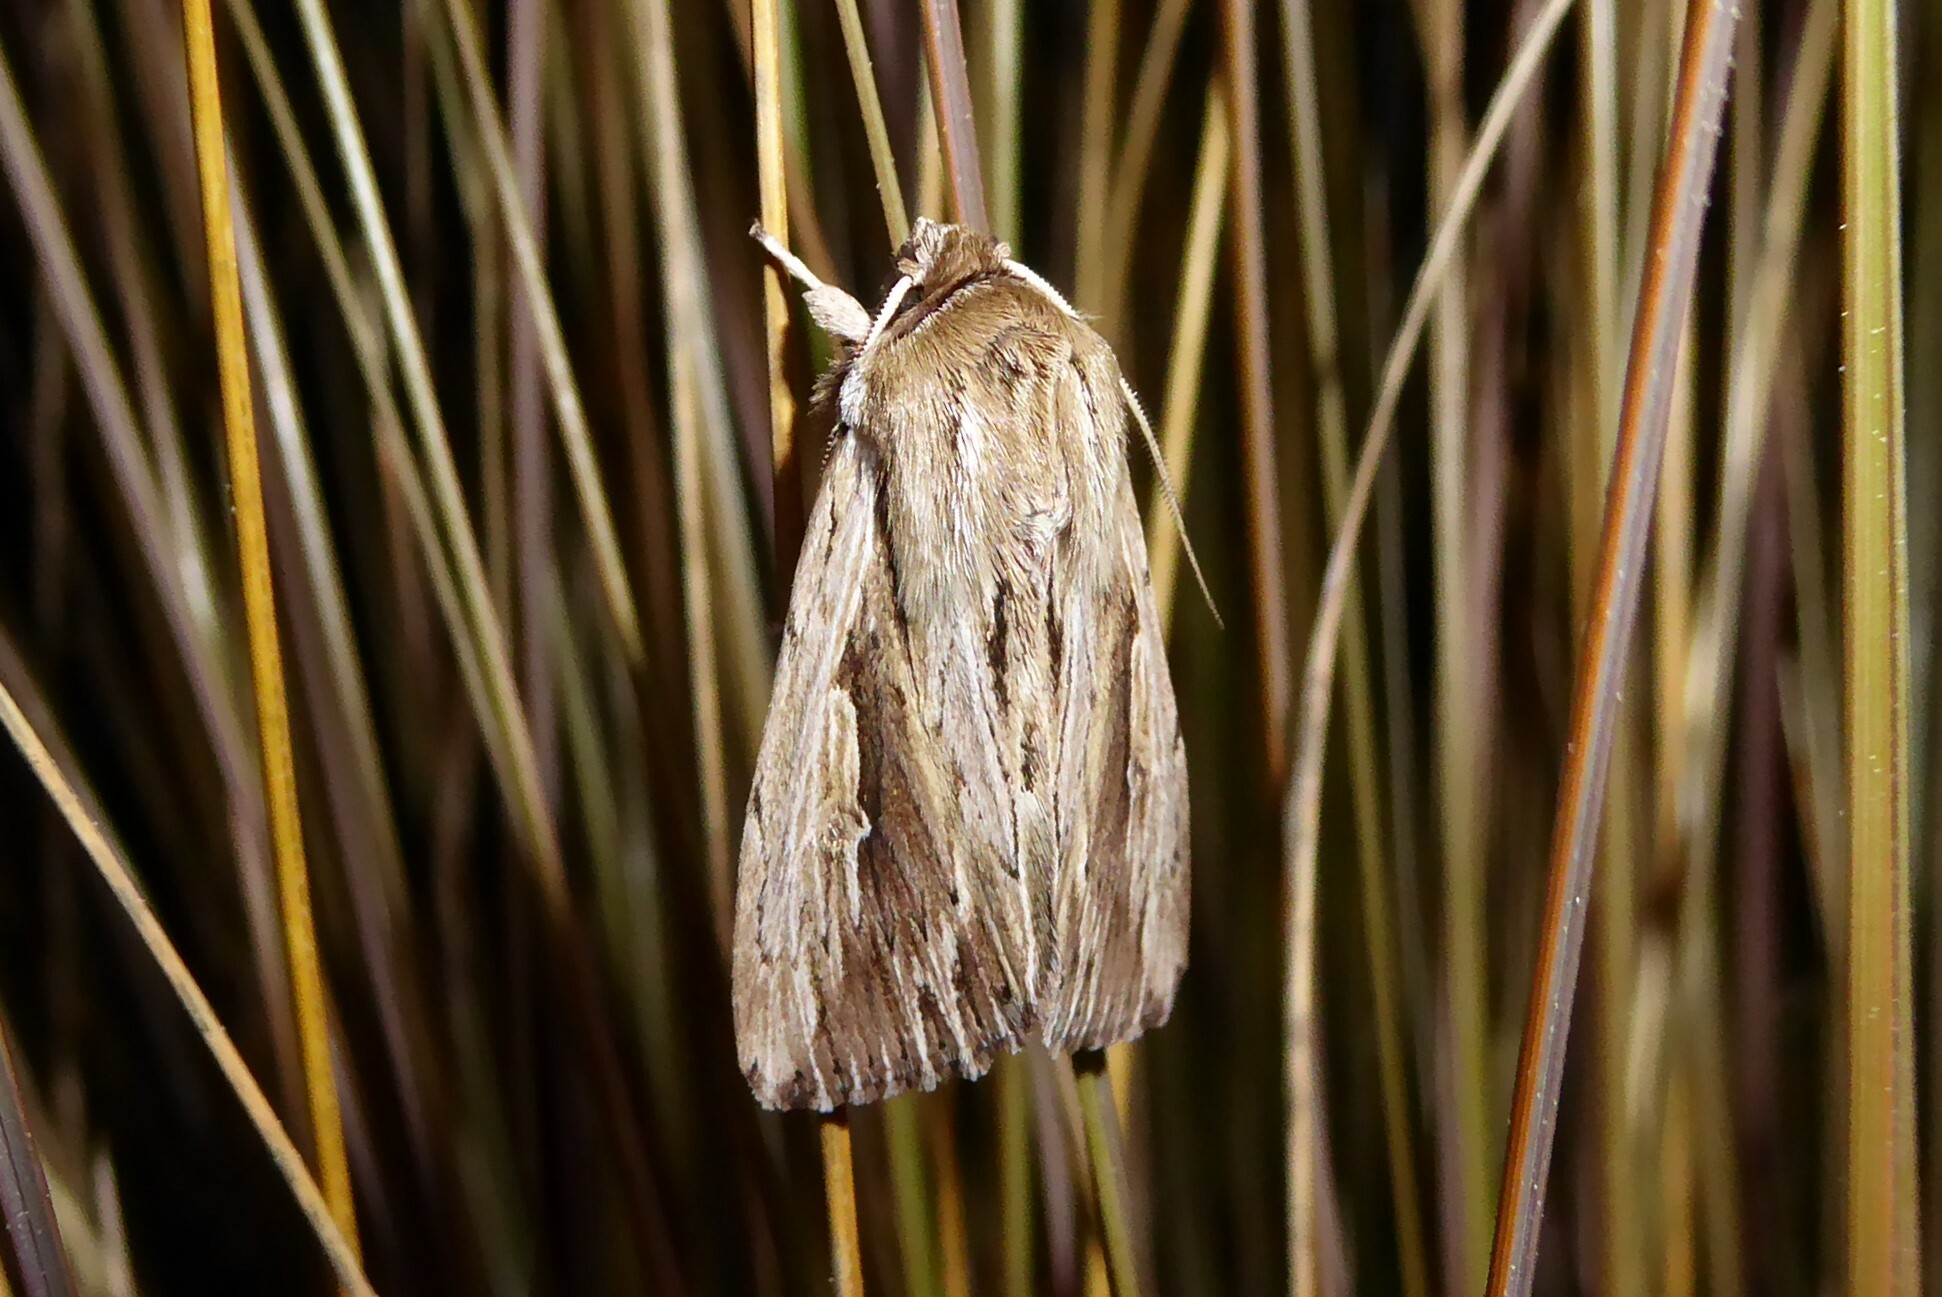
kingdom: Animalia
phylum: Arthropoda
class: Insecta
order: Lepidoptera
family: Noctuidae
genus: Persectania
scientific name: Persectania aversa
